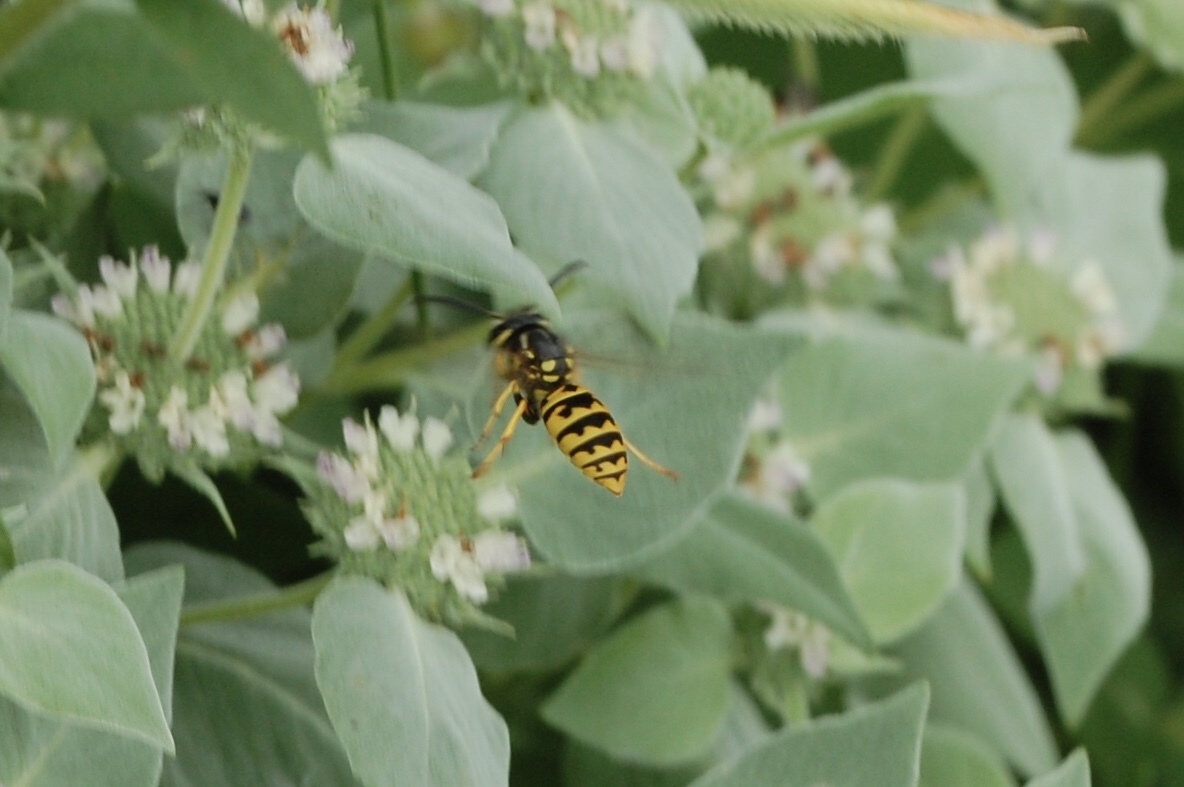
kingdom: Animalia
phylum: Arthropoda
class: Insecta
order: Hymenoptera
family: Vespidae
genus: Vespula
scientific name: Vespula germanica
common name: German wasp
